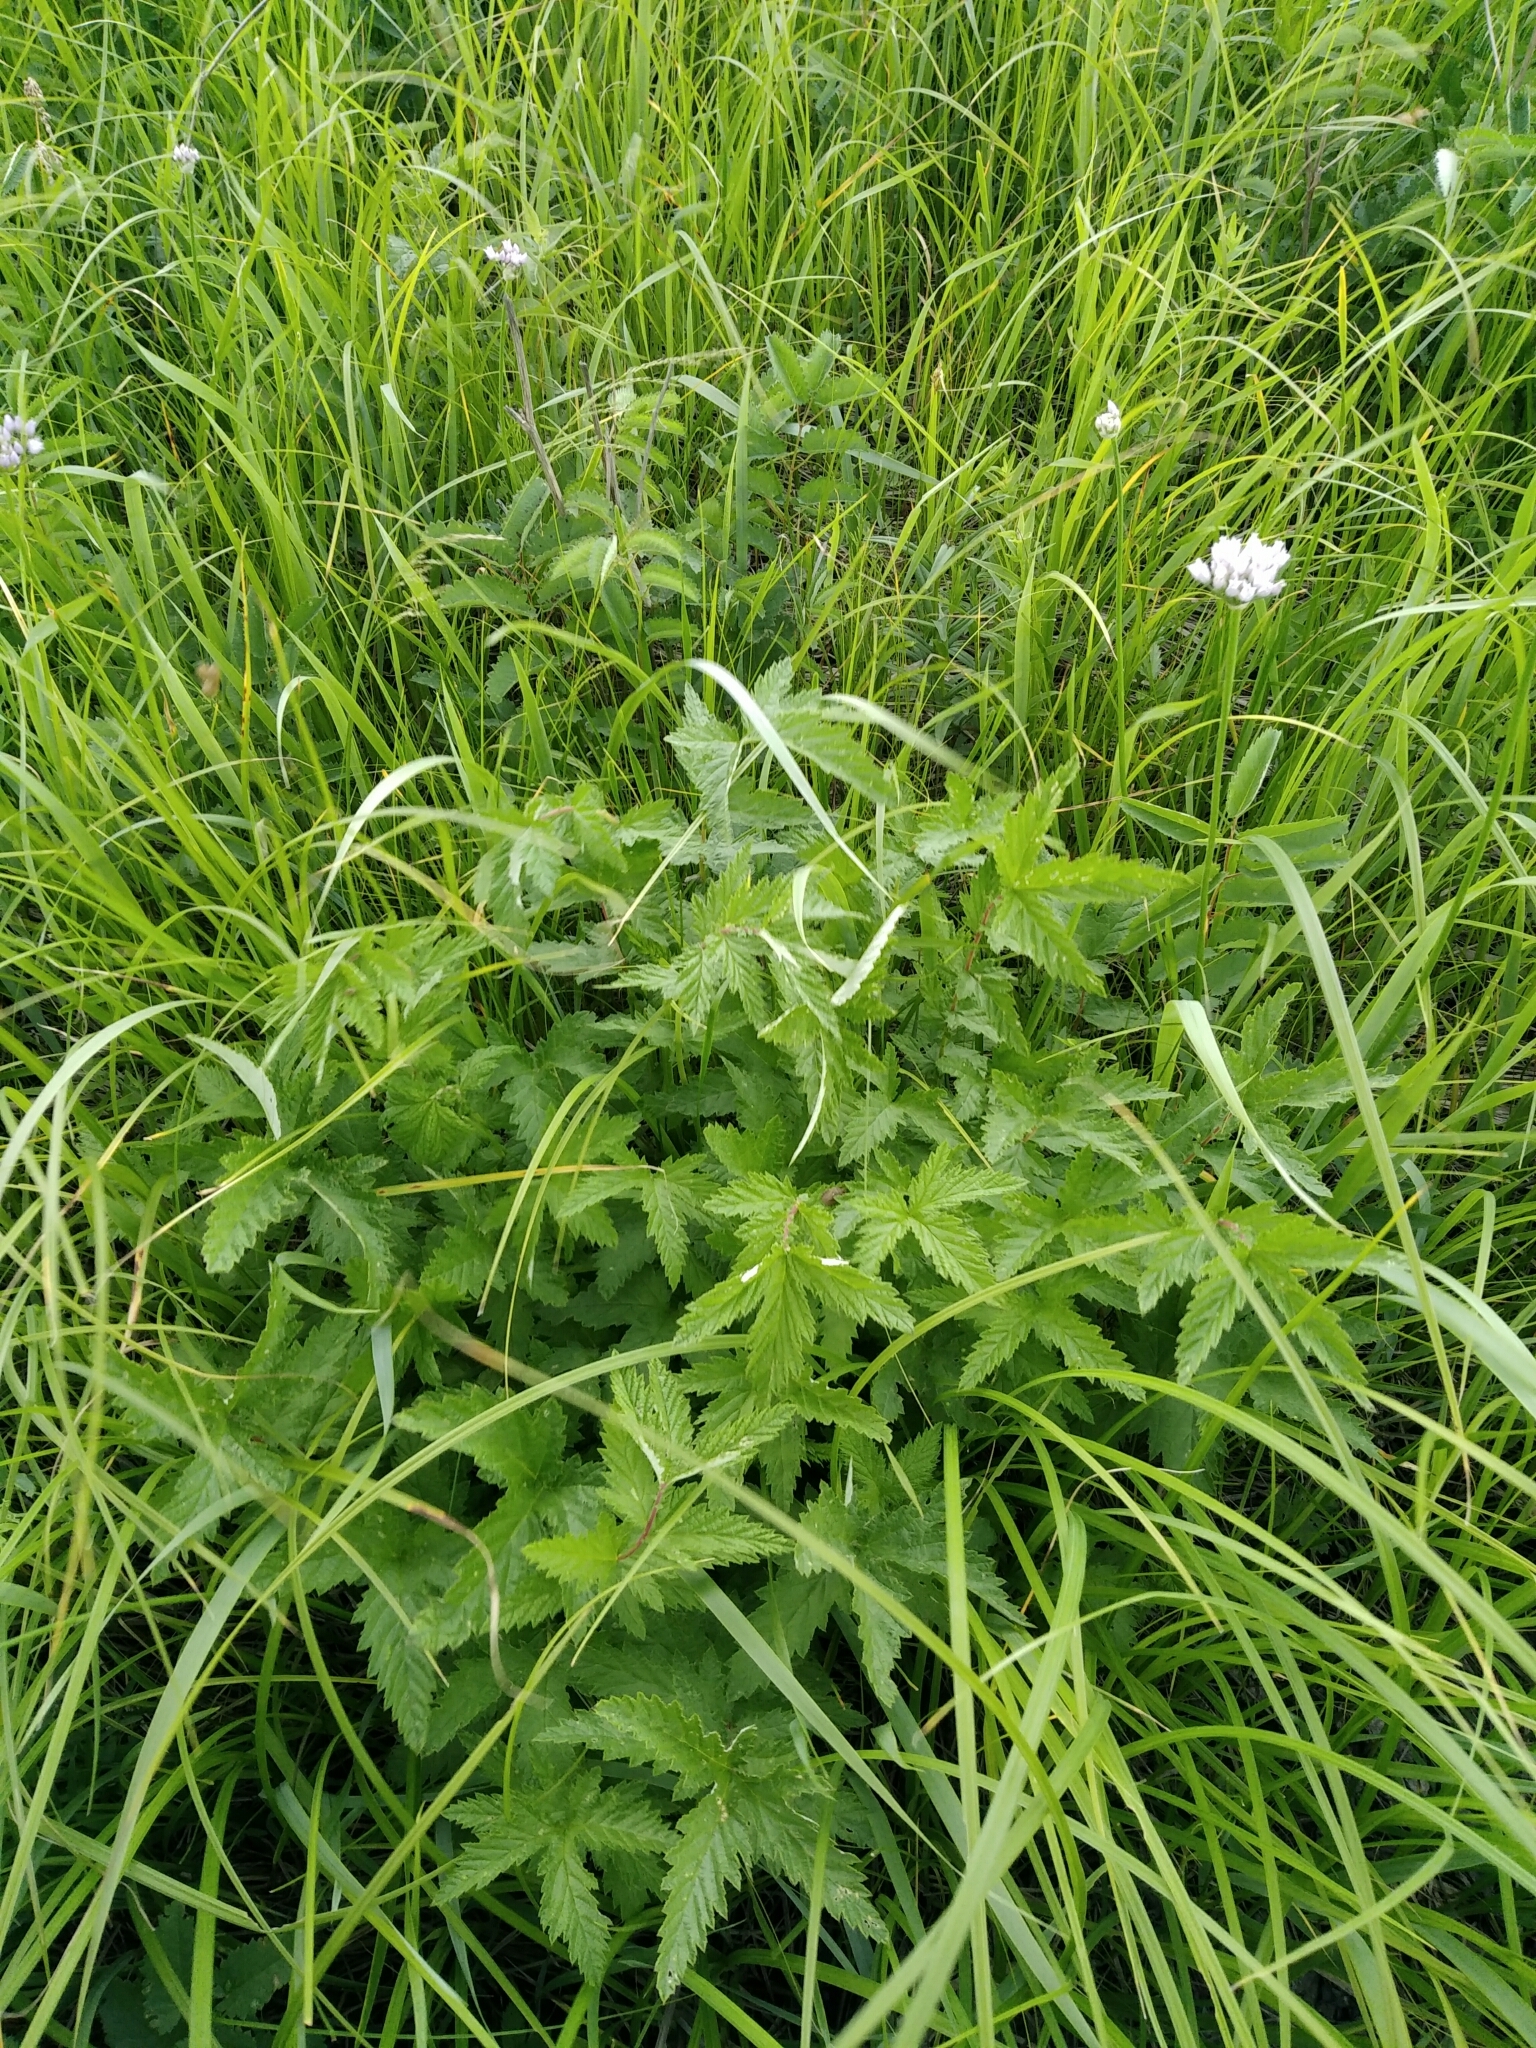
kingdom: Plantae
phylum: Tracheophyta
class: Magnoliopsida
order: Rosales
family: Rosaceae
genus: Filipendula
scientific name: Filipendula ulmaria
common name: Meadowsweet
